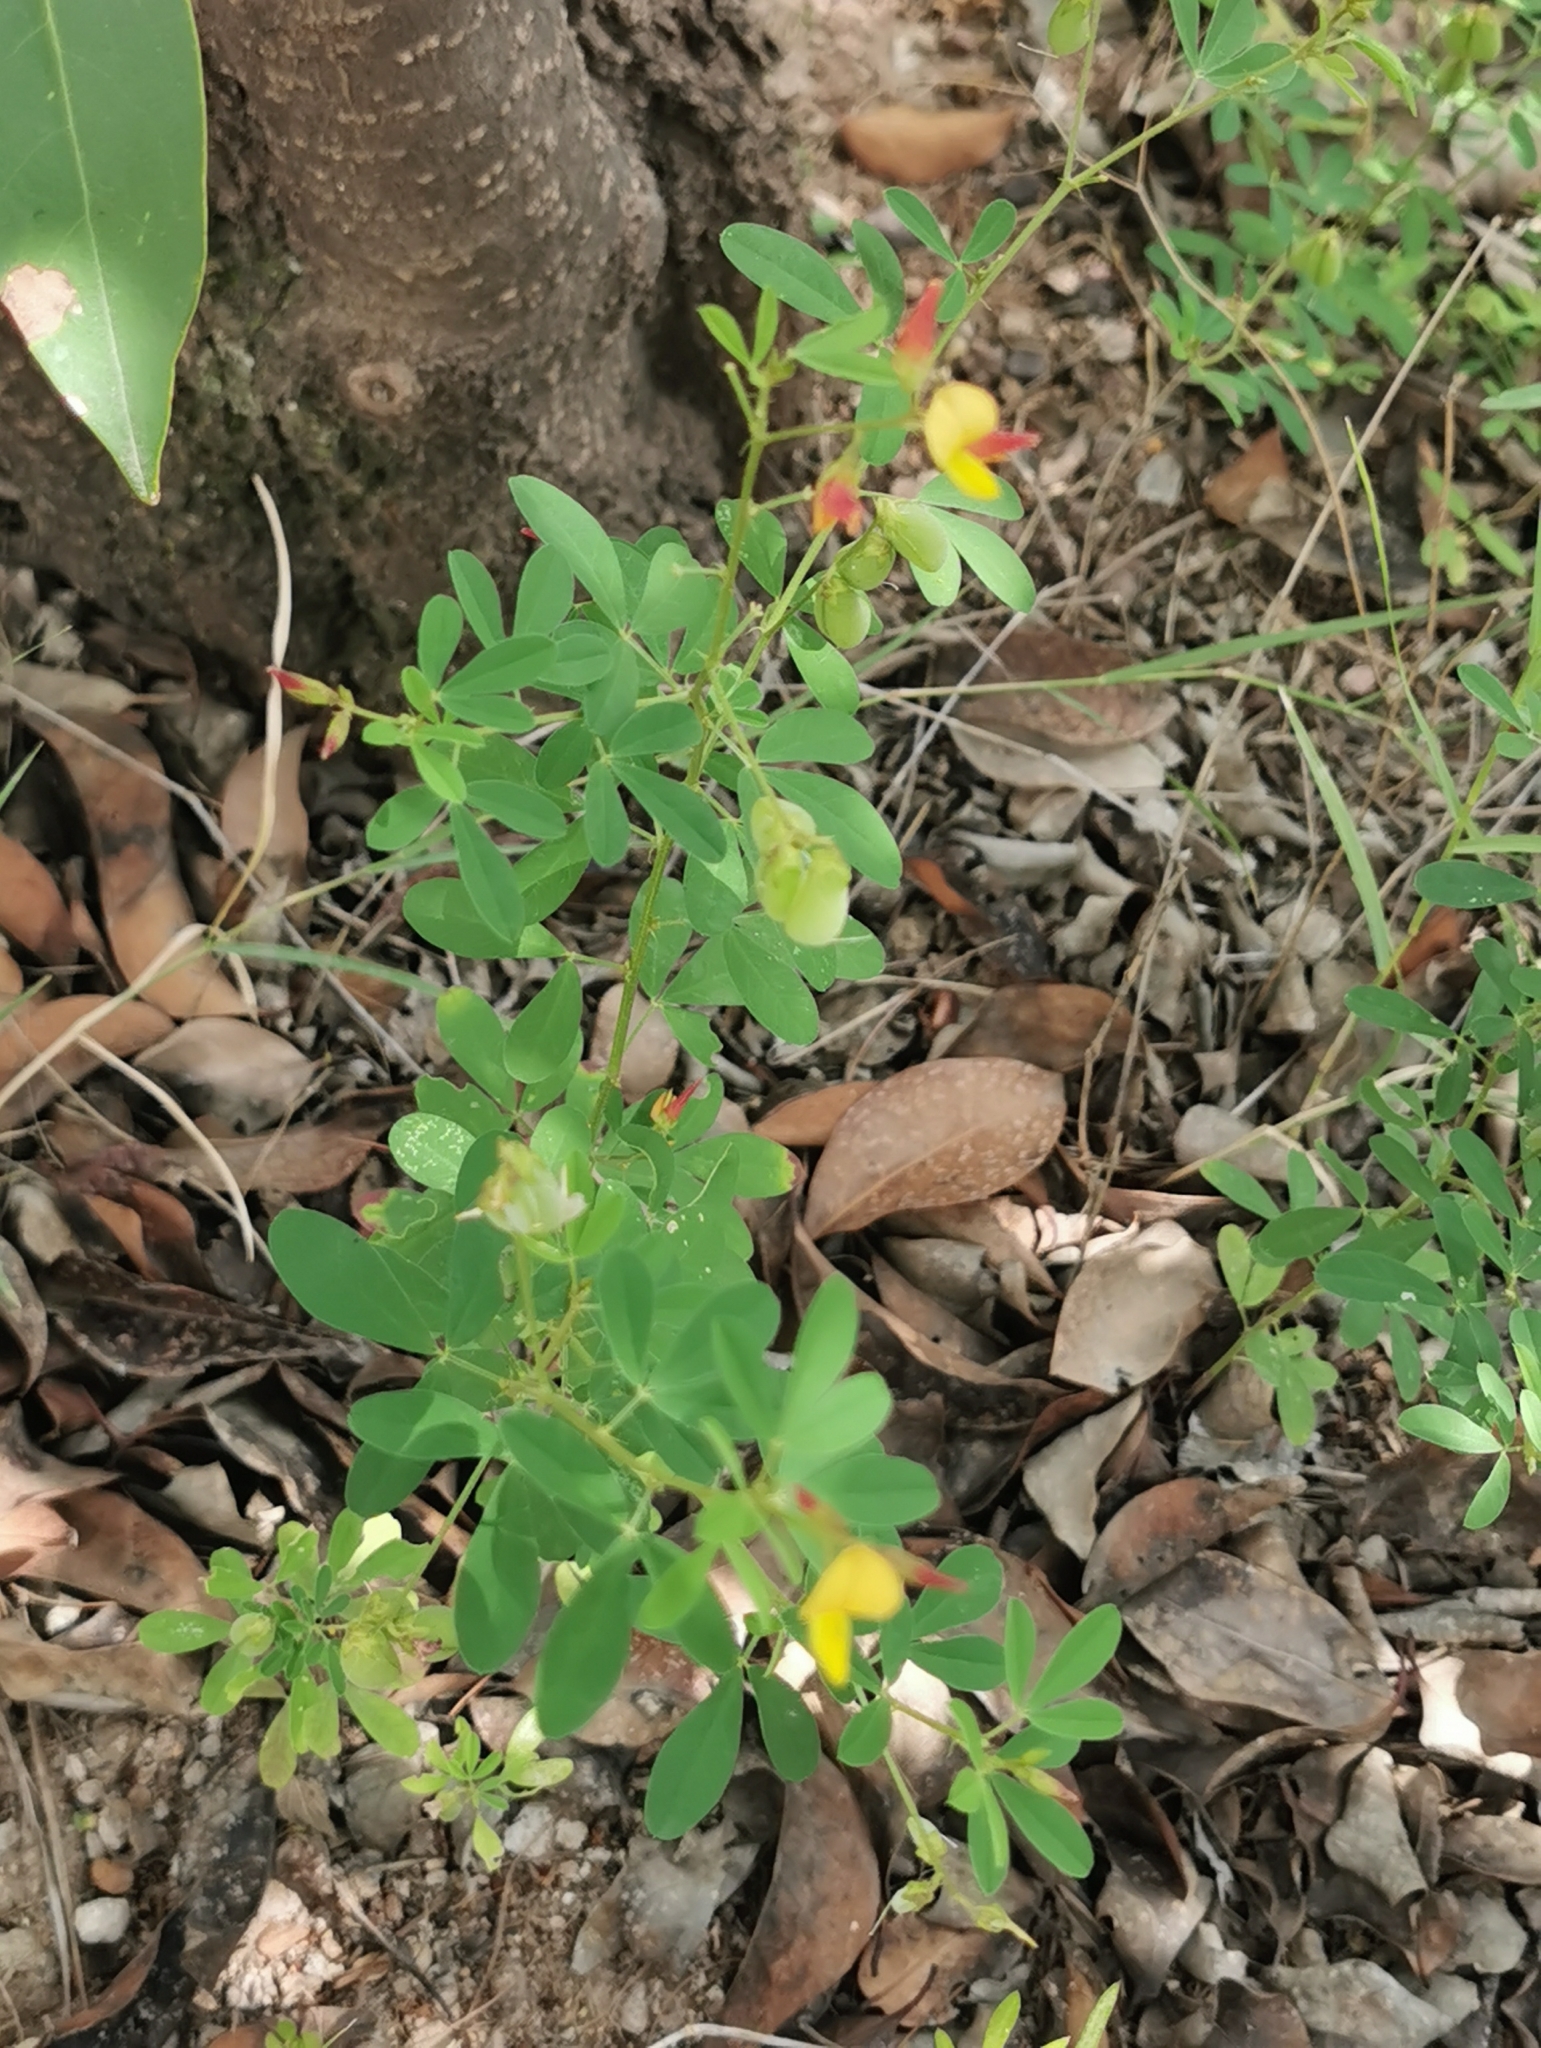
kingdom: Plantae
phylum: Tracheophyta
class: Magnoliopsida
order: Fabales
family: Fabaceae
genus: Crotalaria
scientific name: Crotalaria pumila
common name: Low rattlebox
